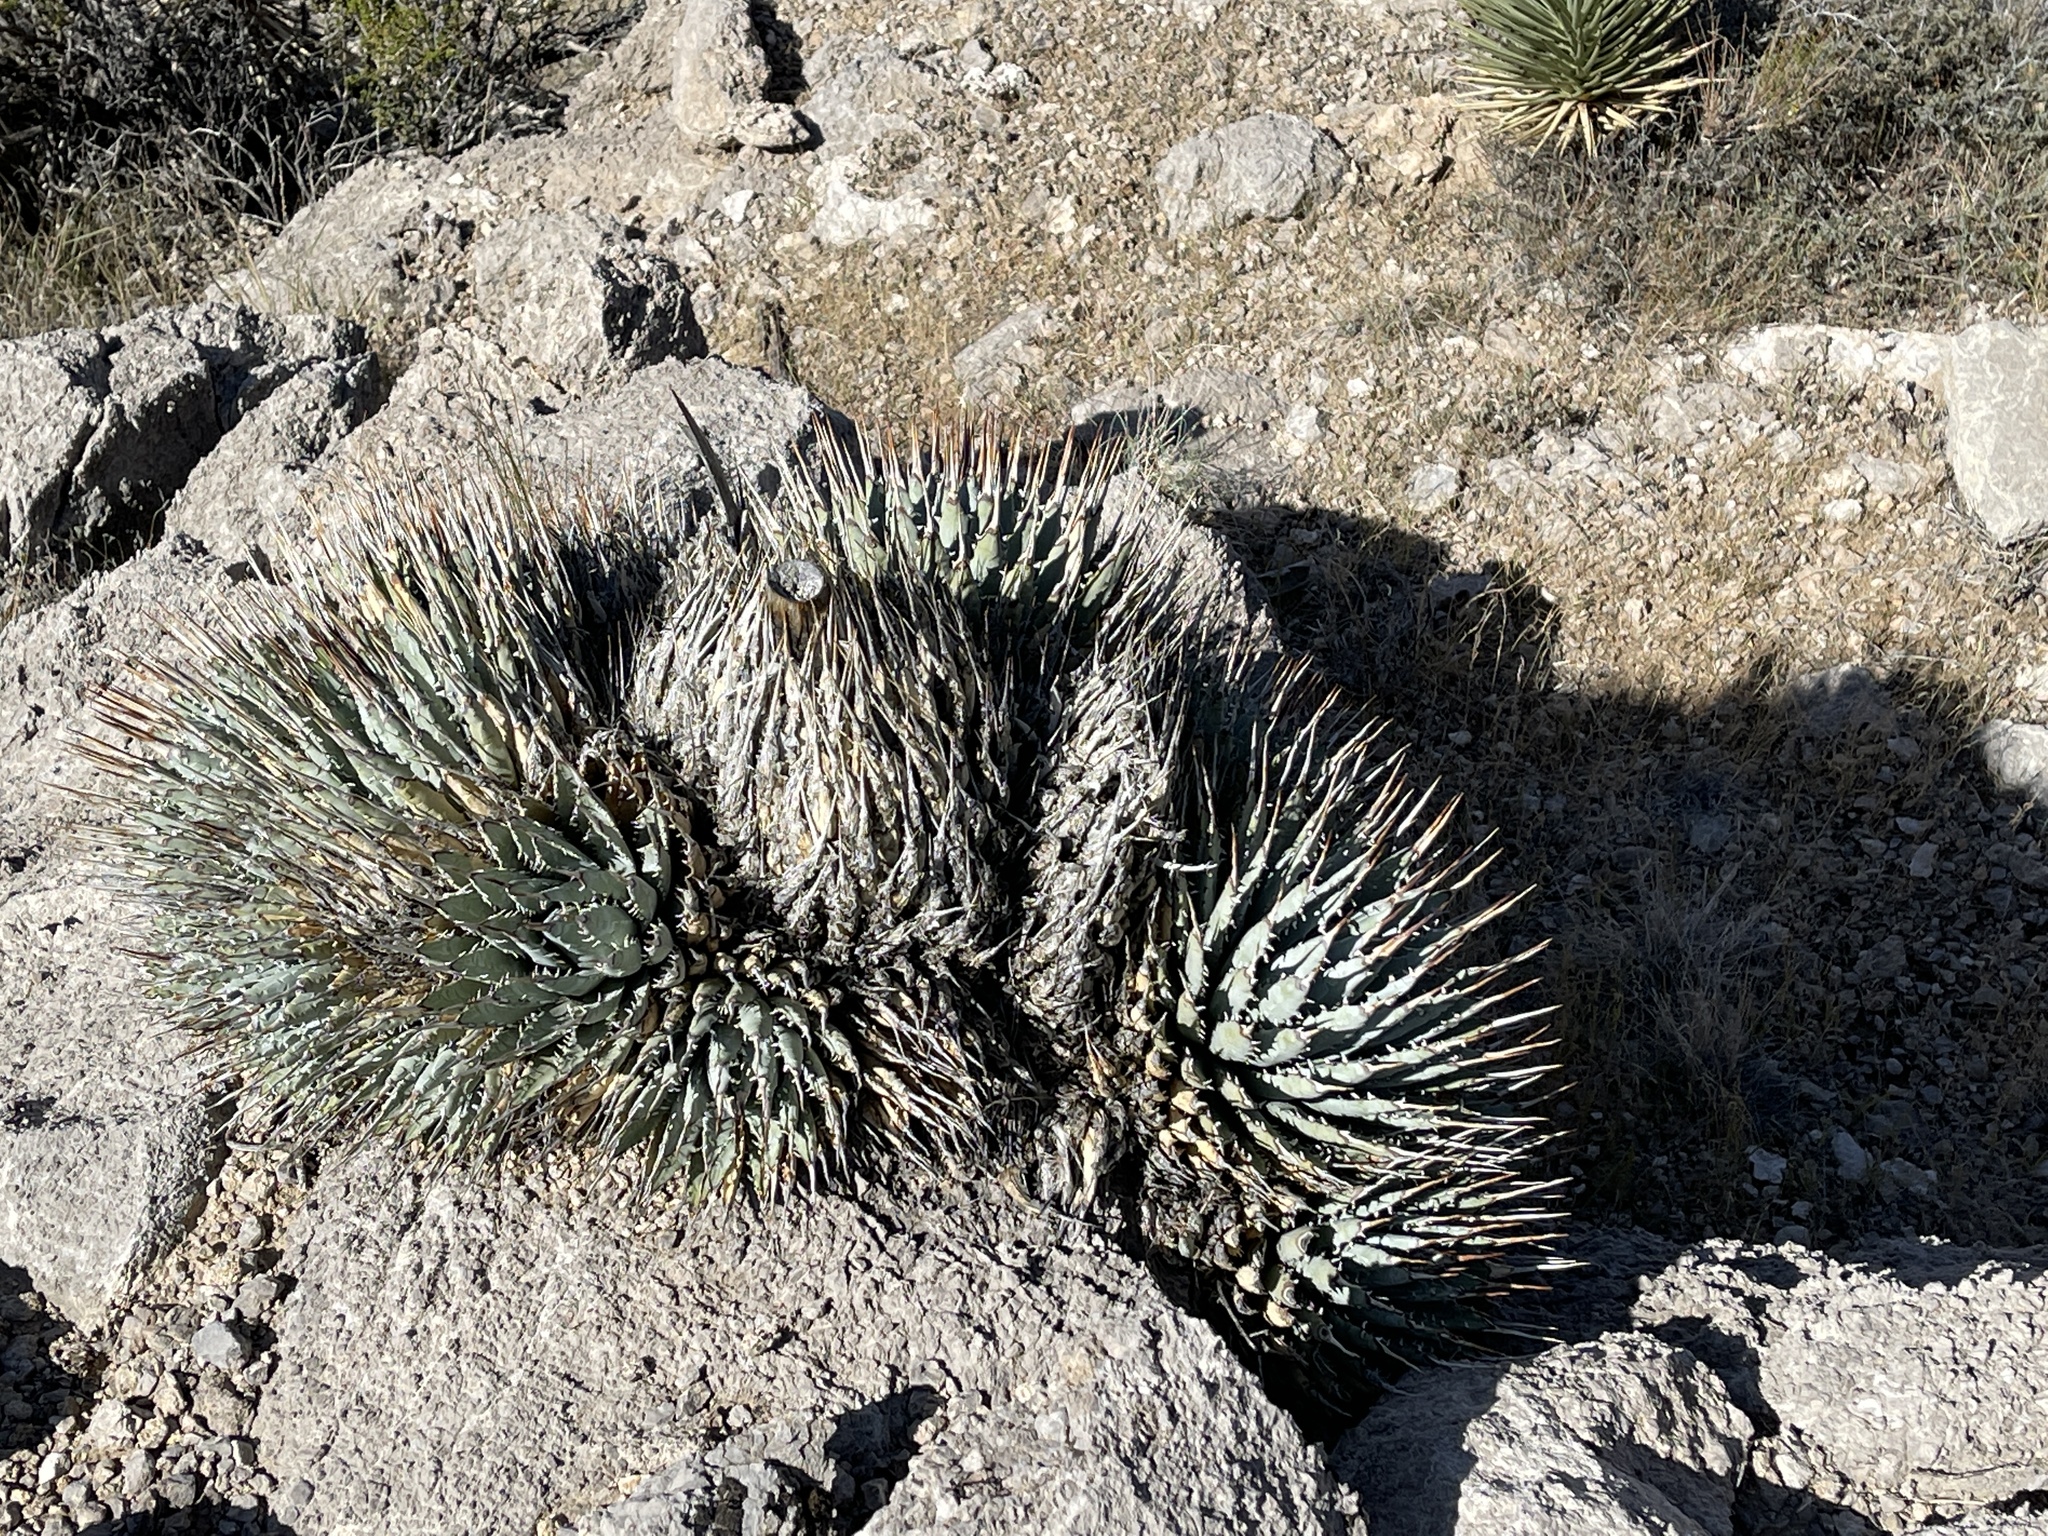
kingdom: Plantae
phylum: Tracheophyta
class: Liliopsida
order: Asparagales
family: Asparagaceae
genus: Agave
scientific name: Agave utahensis
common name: Utah agave
